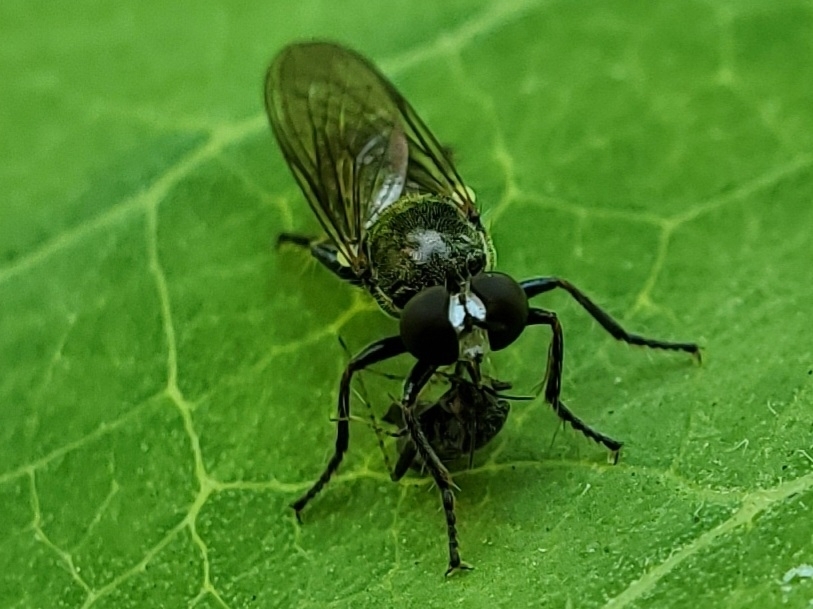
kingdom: Animalia
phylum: Arthropoda
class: Insecta
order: Diptera
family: Asilidae
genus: Atomosia
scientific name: Atomosia puella
